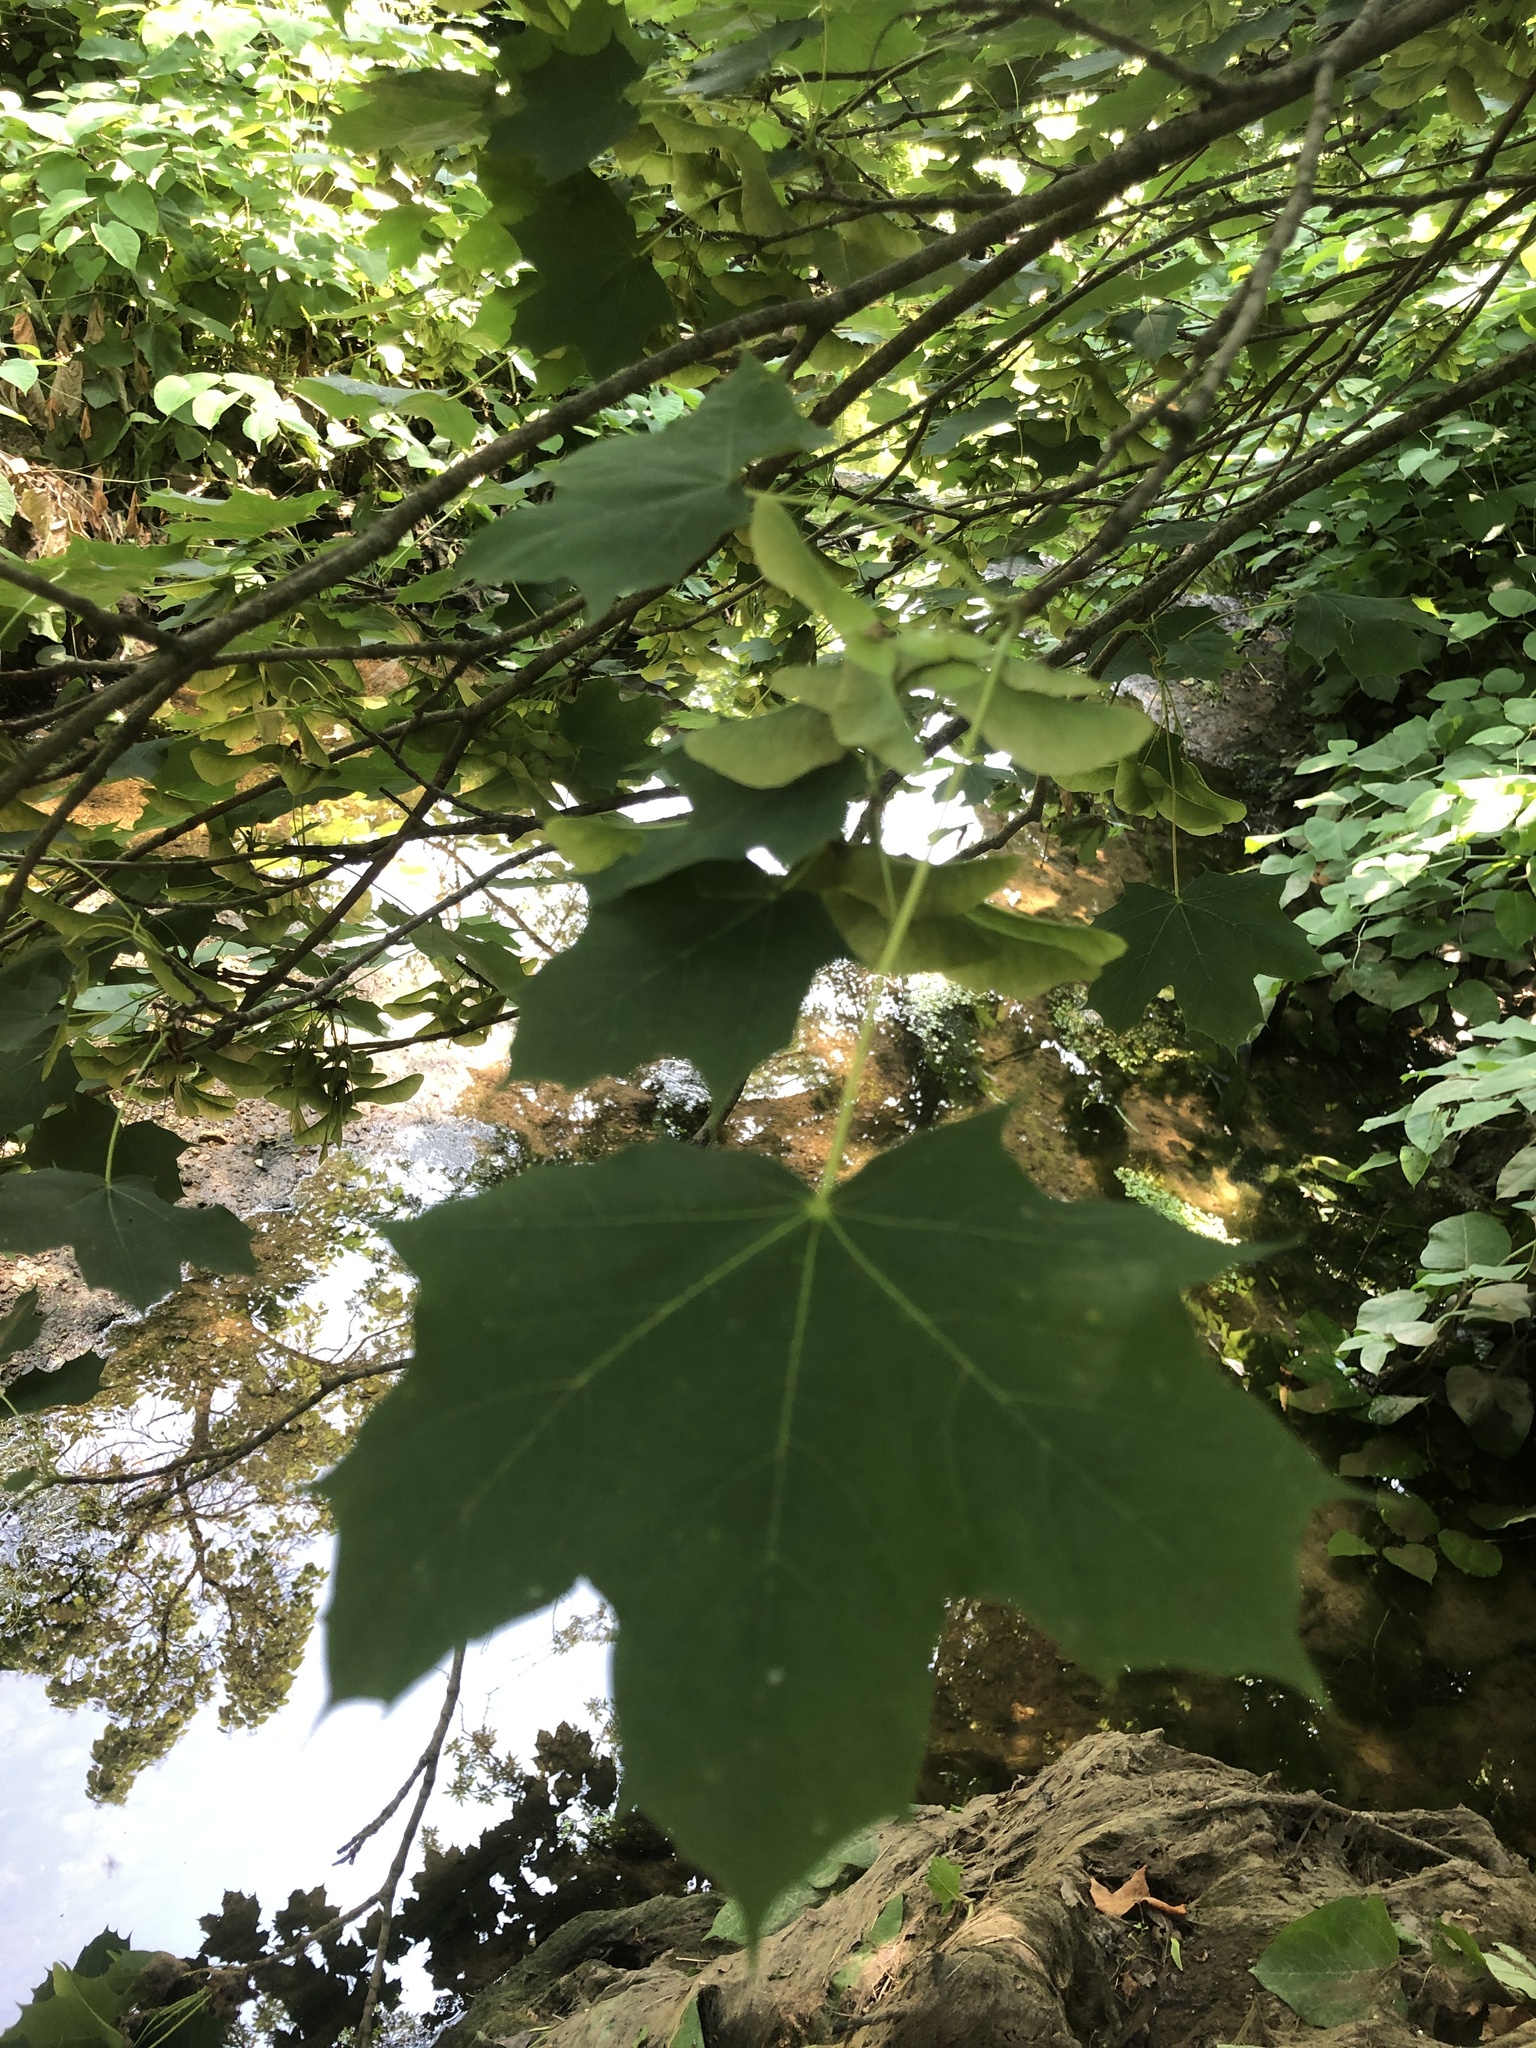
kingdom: Plantae
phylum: Tracheophyta
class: Magnoliopsida
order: Sapindales
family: Sapindaceae
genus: Acer
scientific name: Acer platanoides
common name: Norway maple
